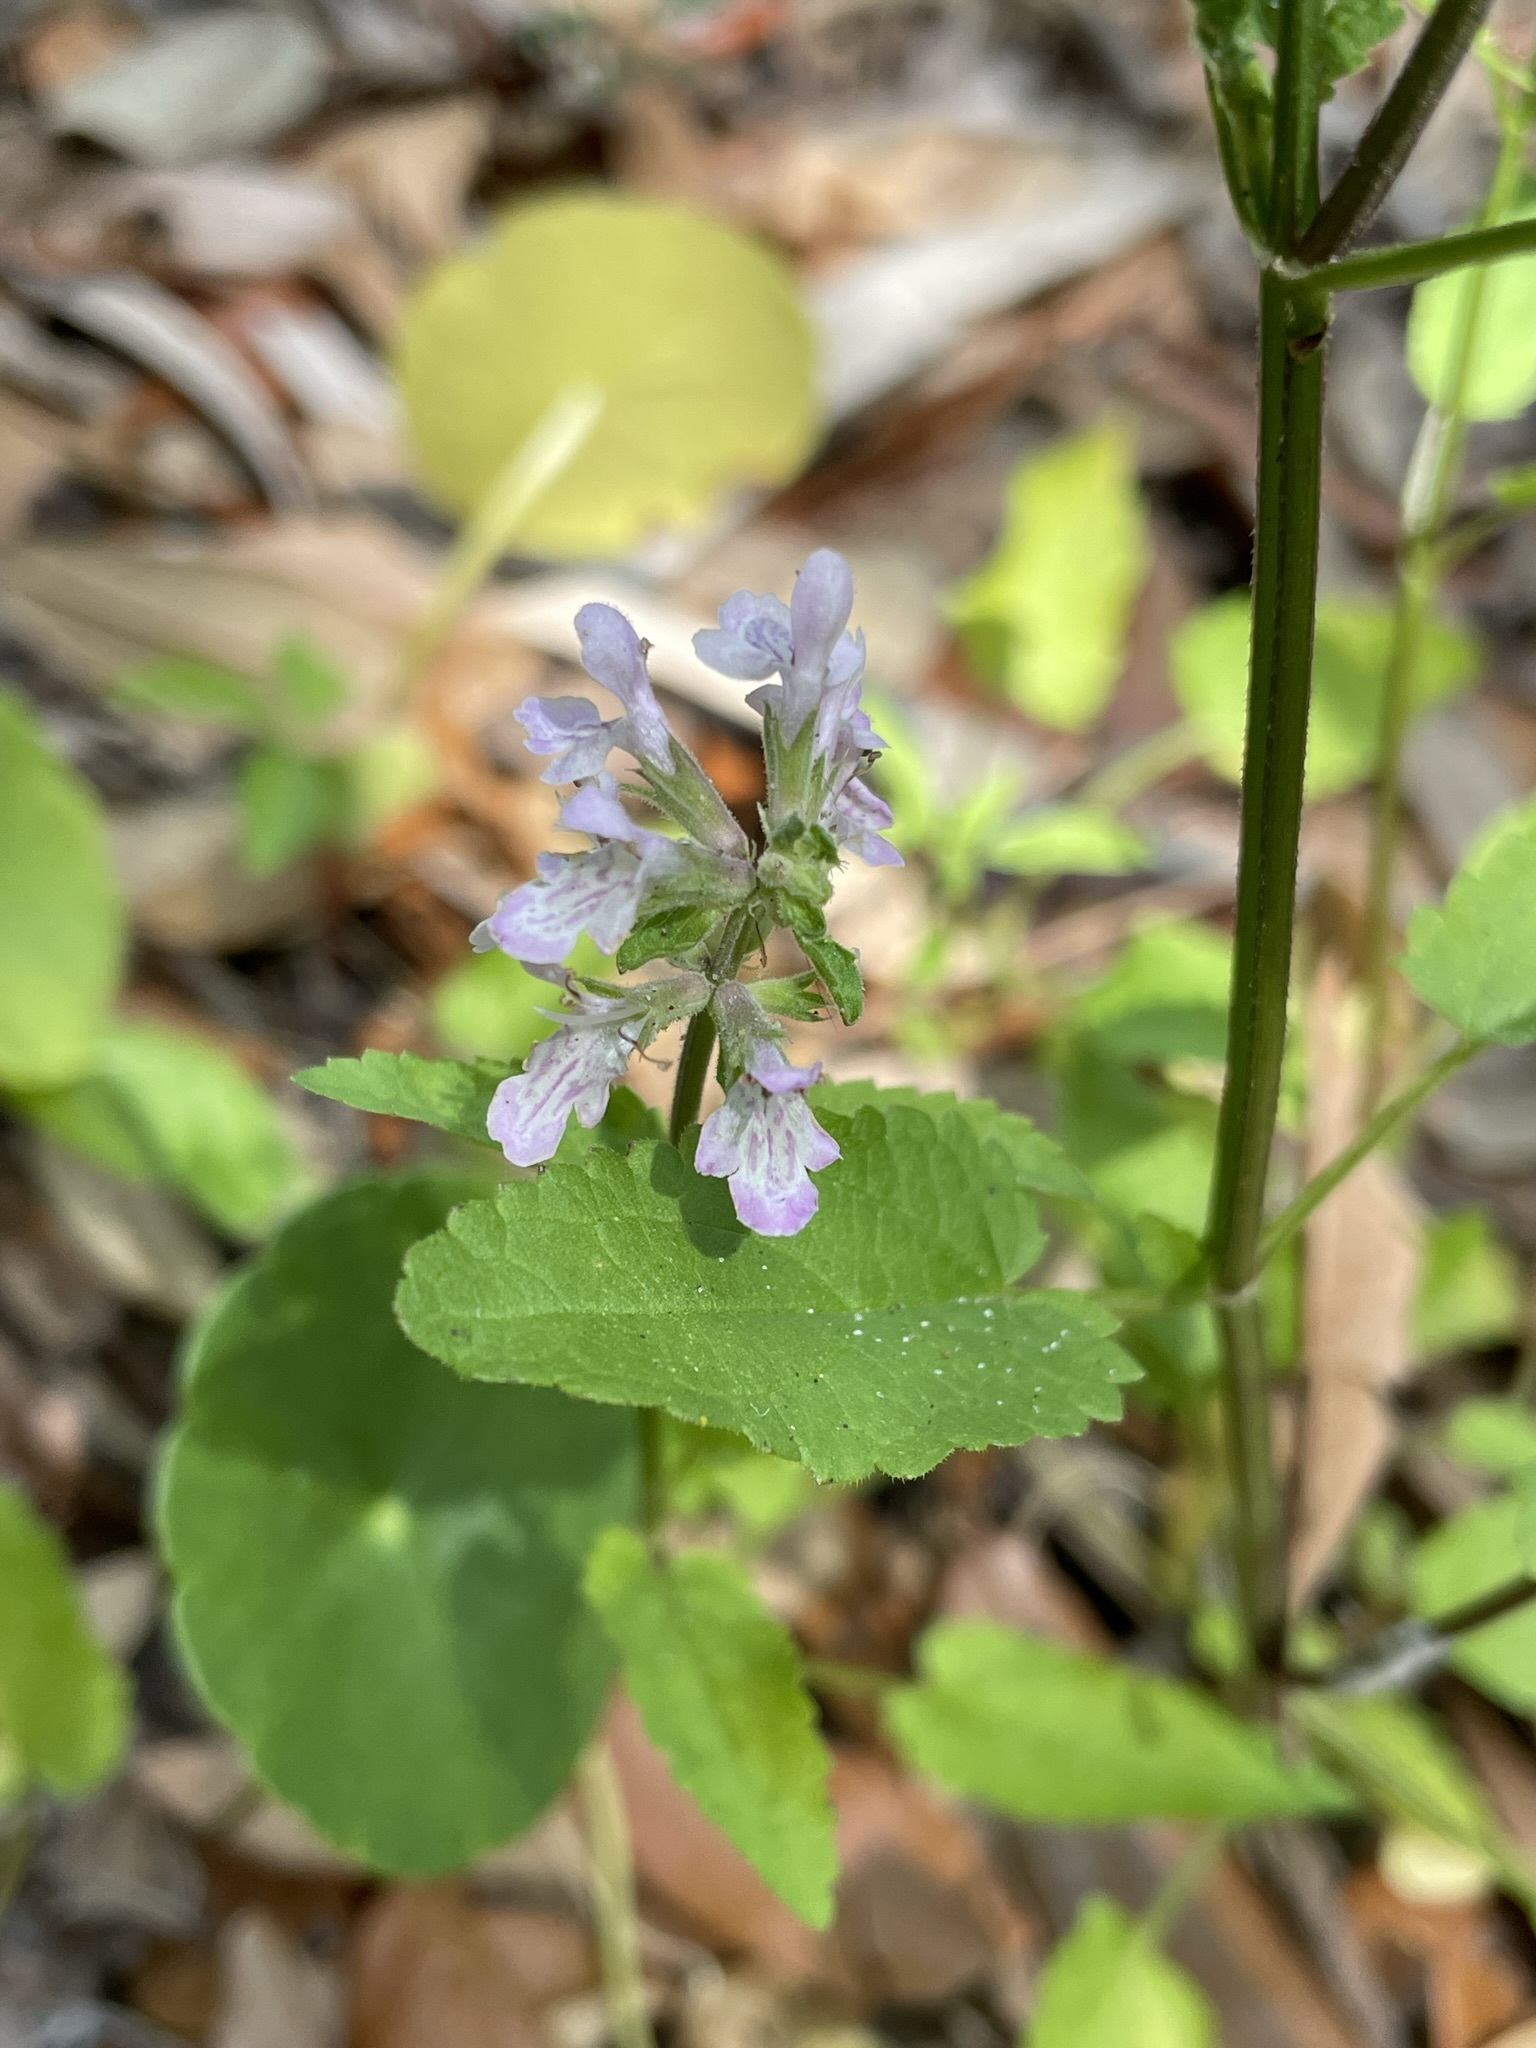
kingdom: Plantae
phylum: Tracheophyta
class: Magnoliopsida
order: Lamiales
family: Lamiaceae
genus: Stachys
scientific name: Stachys floridana
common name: Florida betony
